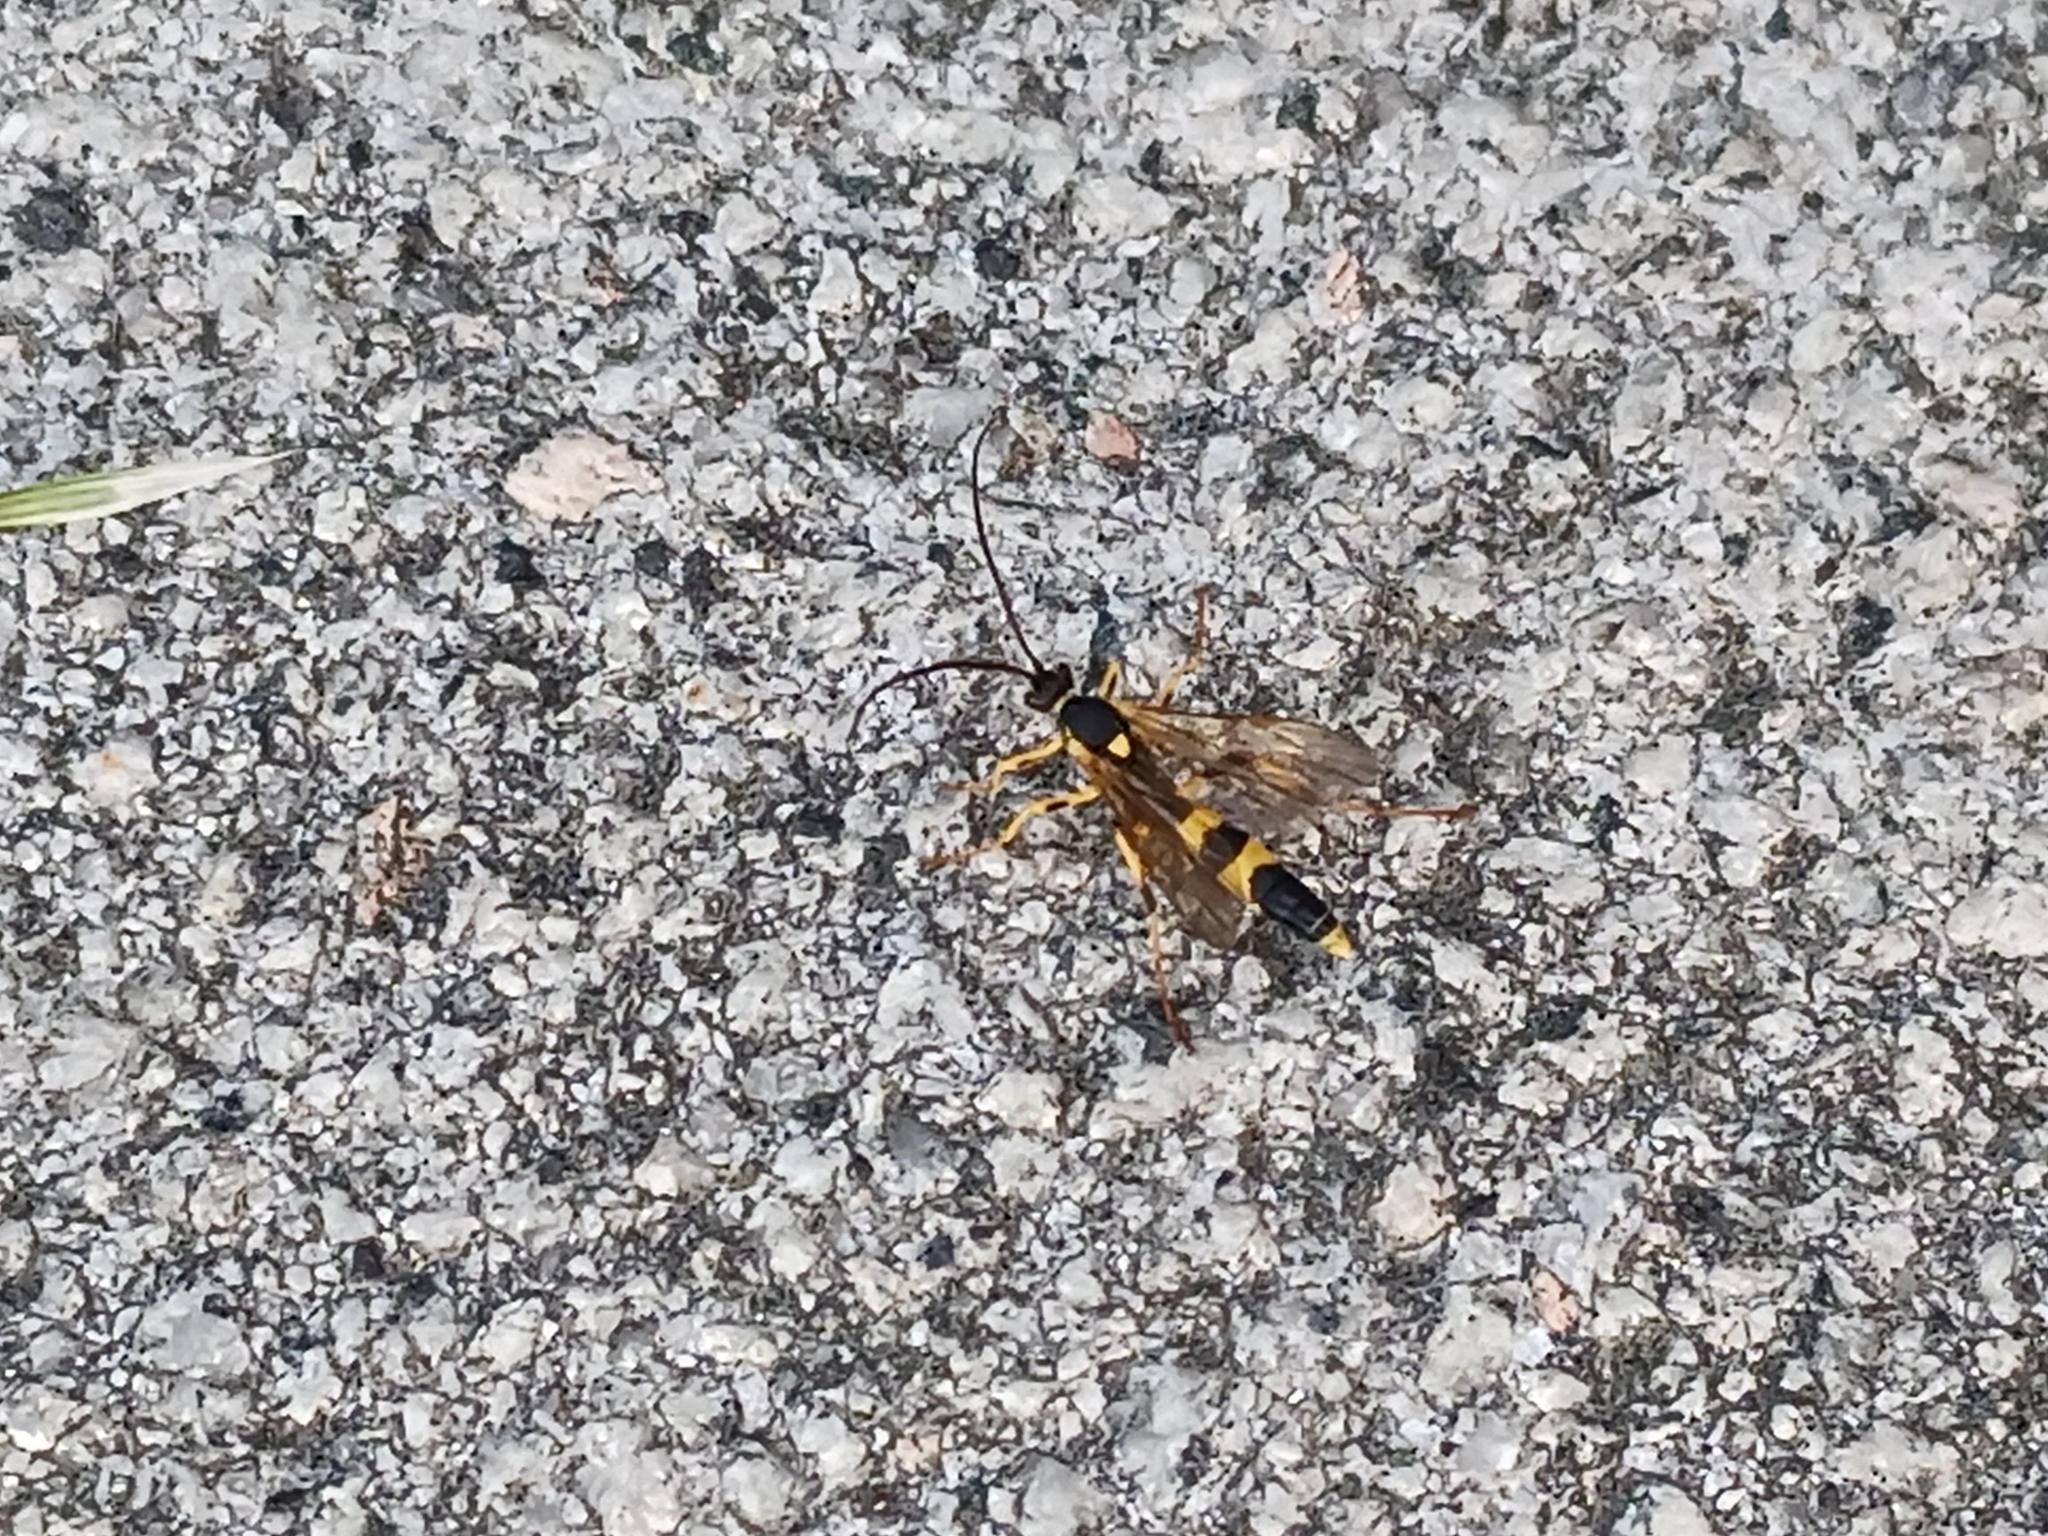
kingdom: Animalia
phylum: Arthropoda
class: Insecta
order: Hymenoptera
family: Ichneumonidae
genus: Amblyteles
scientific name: Amblyteles armatorius
